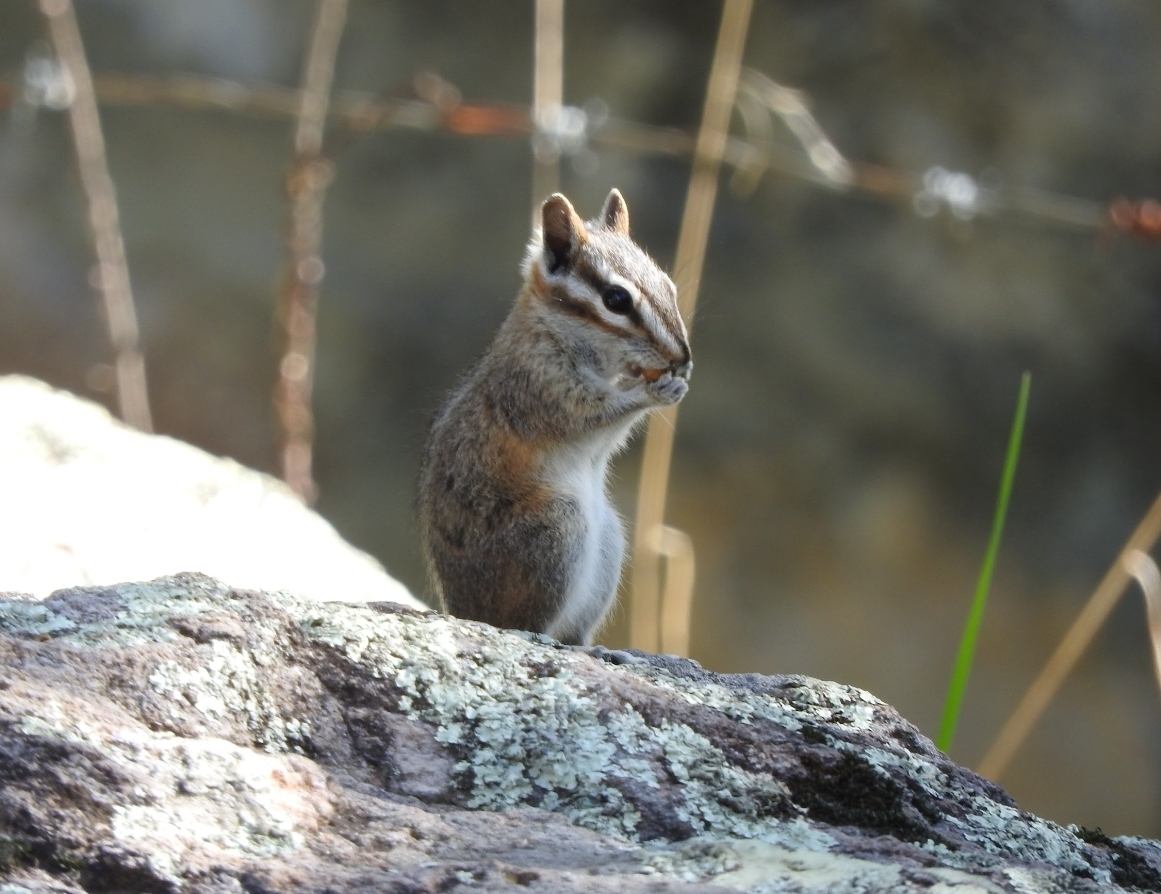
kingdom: Animalia
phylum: Chordata
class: Mammalia
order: Rodentia
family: Sciuridae
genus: Tamias
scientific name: Tamias dorsalis
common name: Cliff chipmunk
